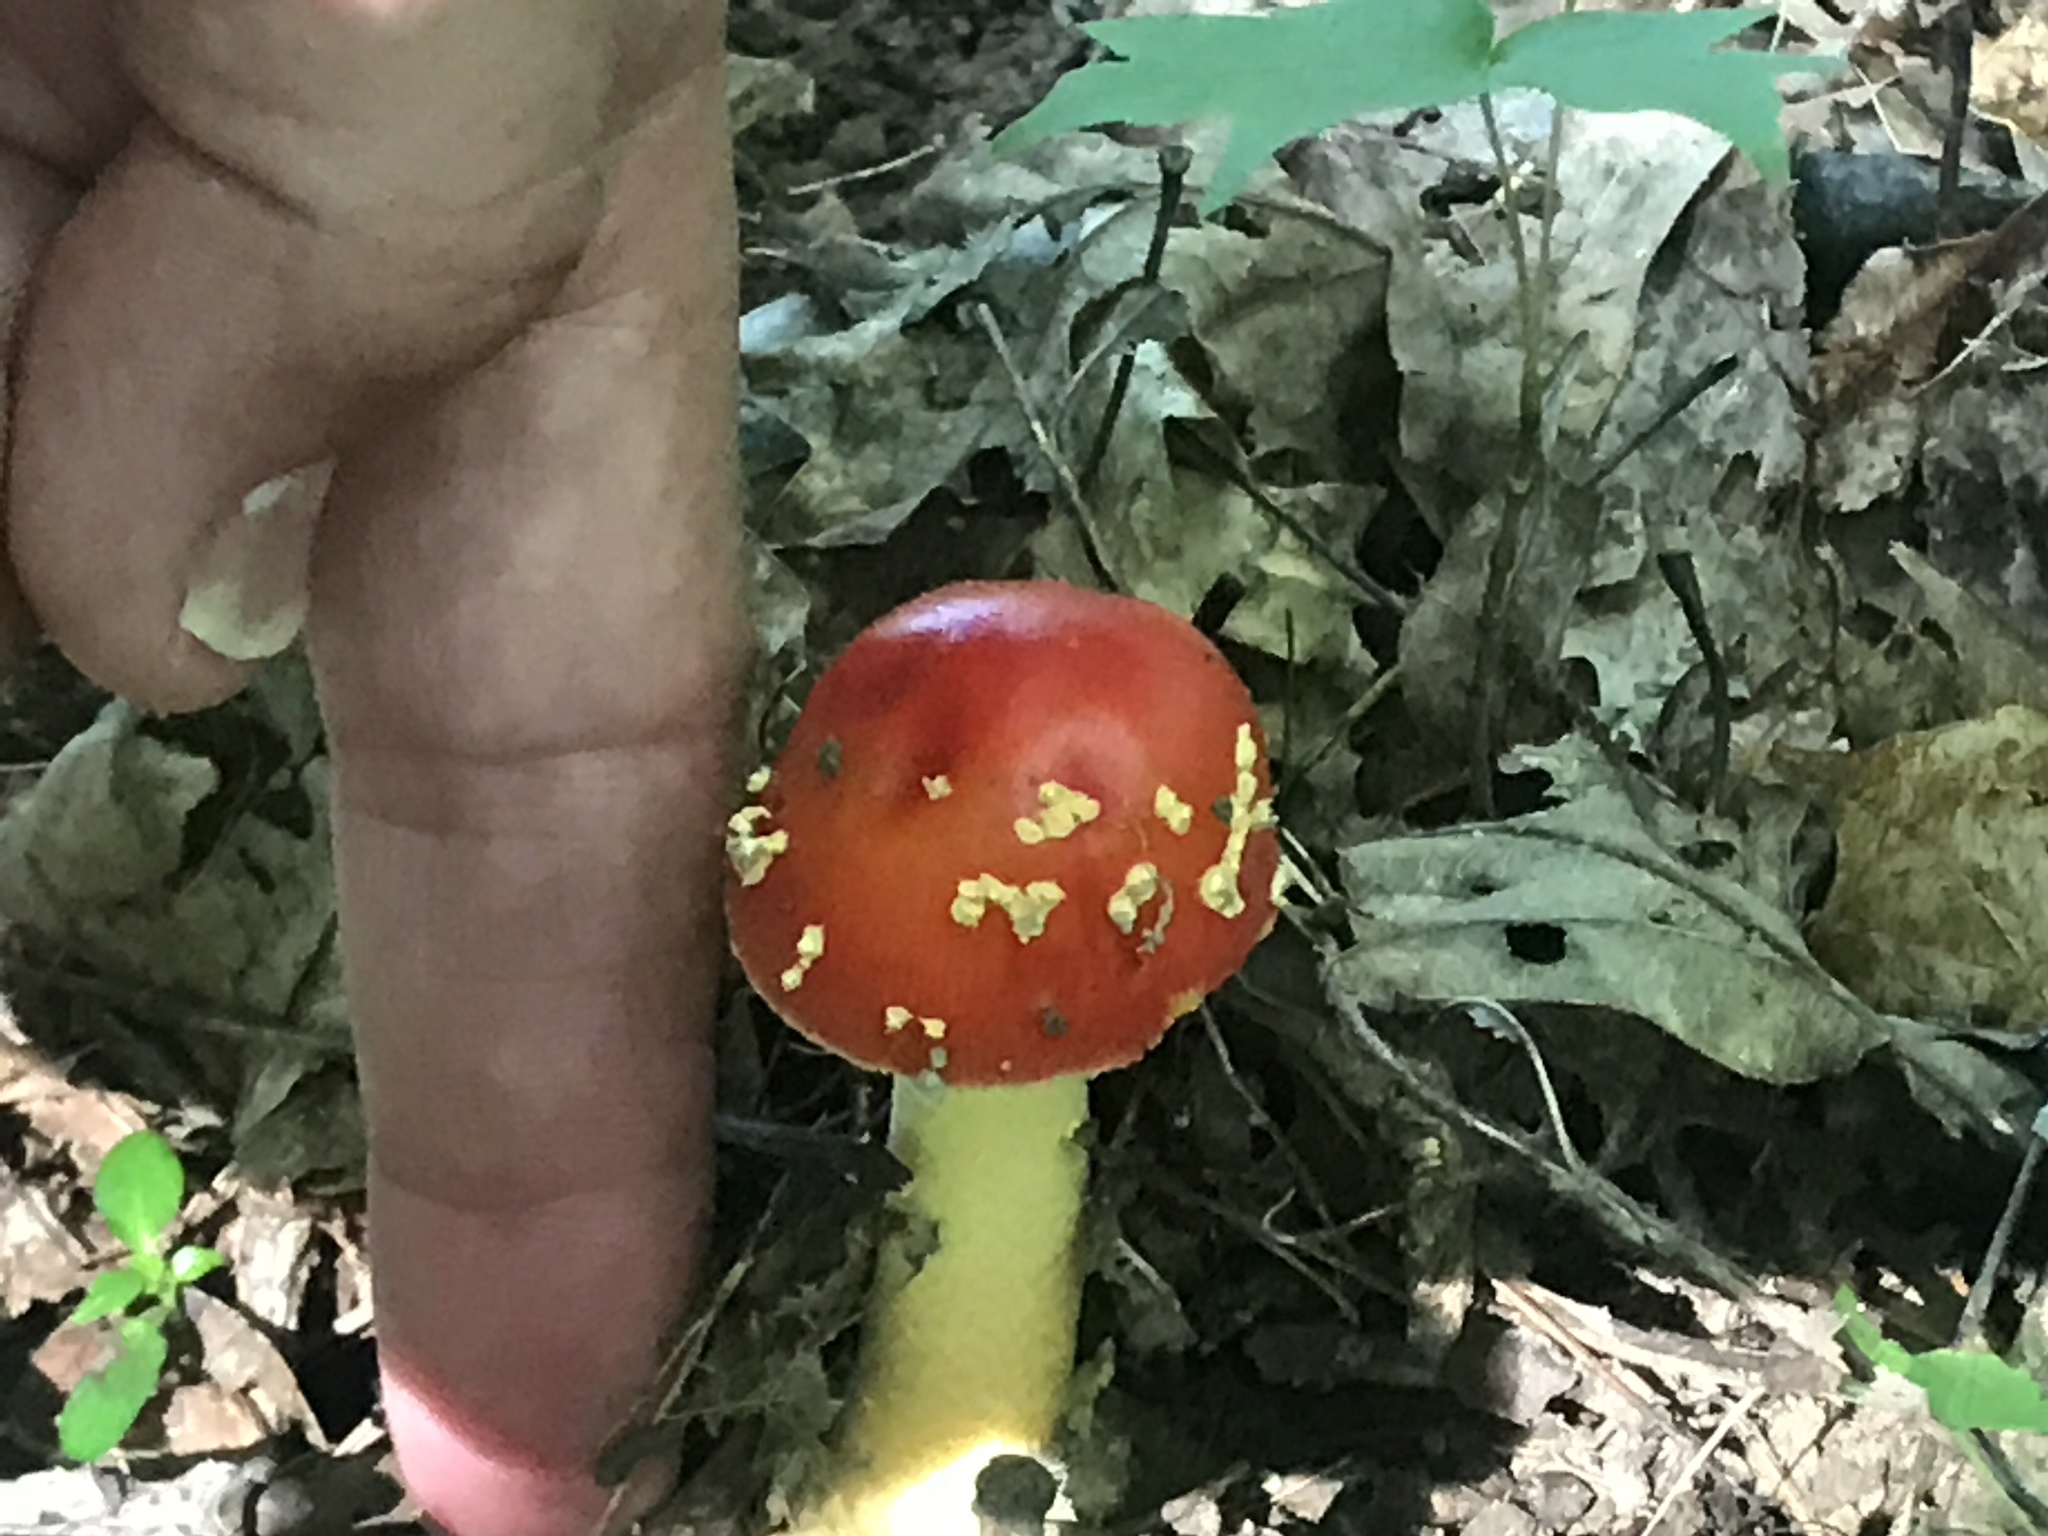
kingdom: Fungi
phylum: Basidiomycota
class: Agaricomycetes
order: Agaricales
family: Amanitaceae
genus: Amanita
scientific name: Amanita parcivolvata
